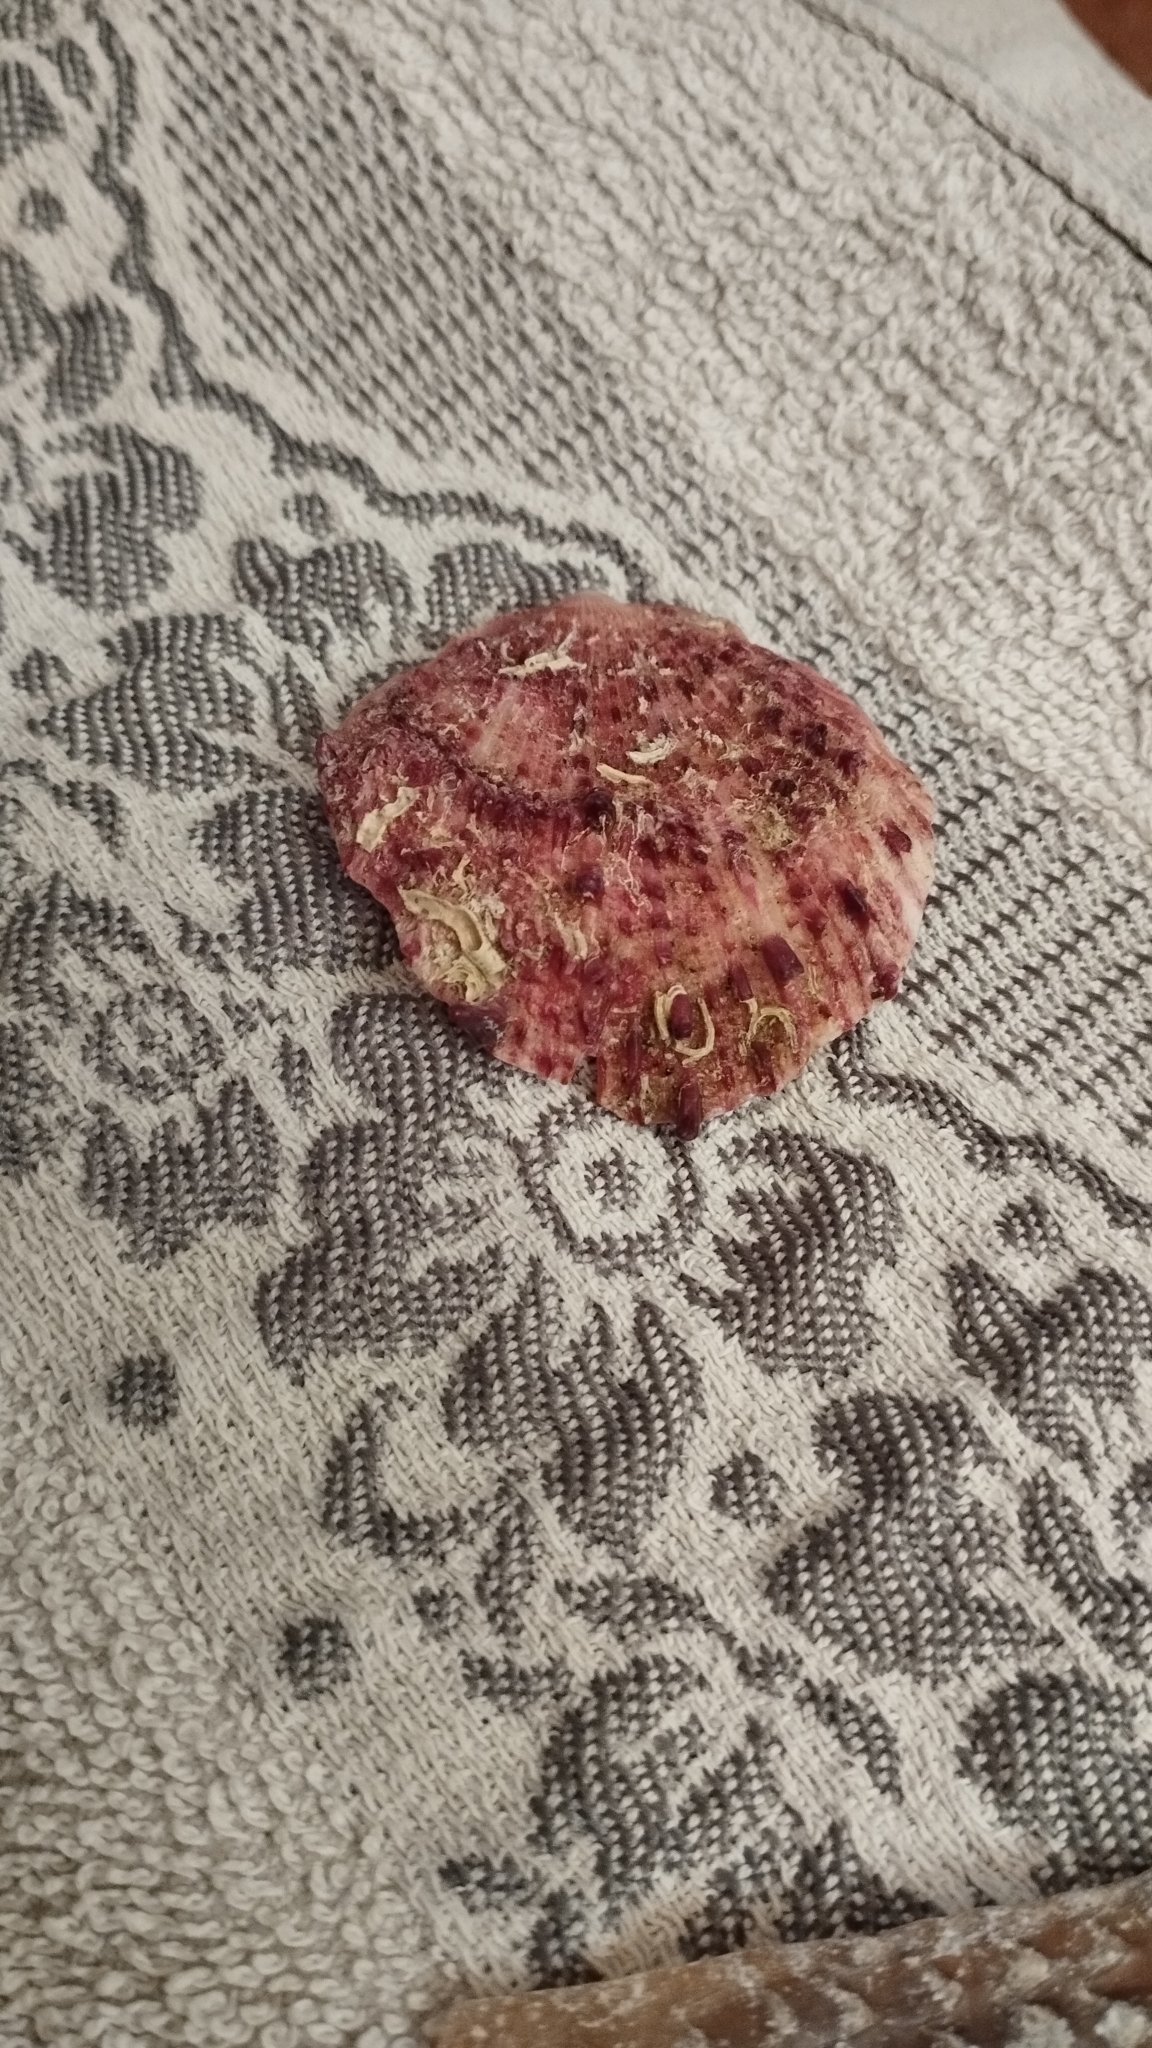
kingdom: Animalia
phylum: Mollusca
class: Bivalvia
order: Pectinida
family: Spondylidae
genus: Spondylus
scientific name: Spondylus gaederopus
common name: European thorny oyster
